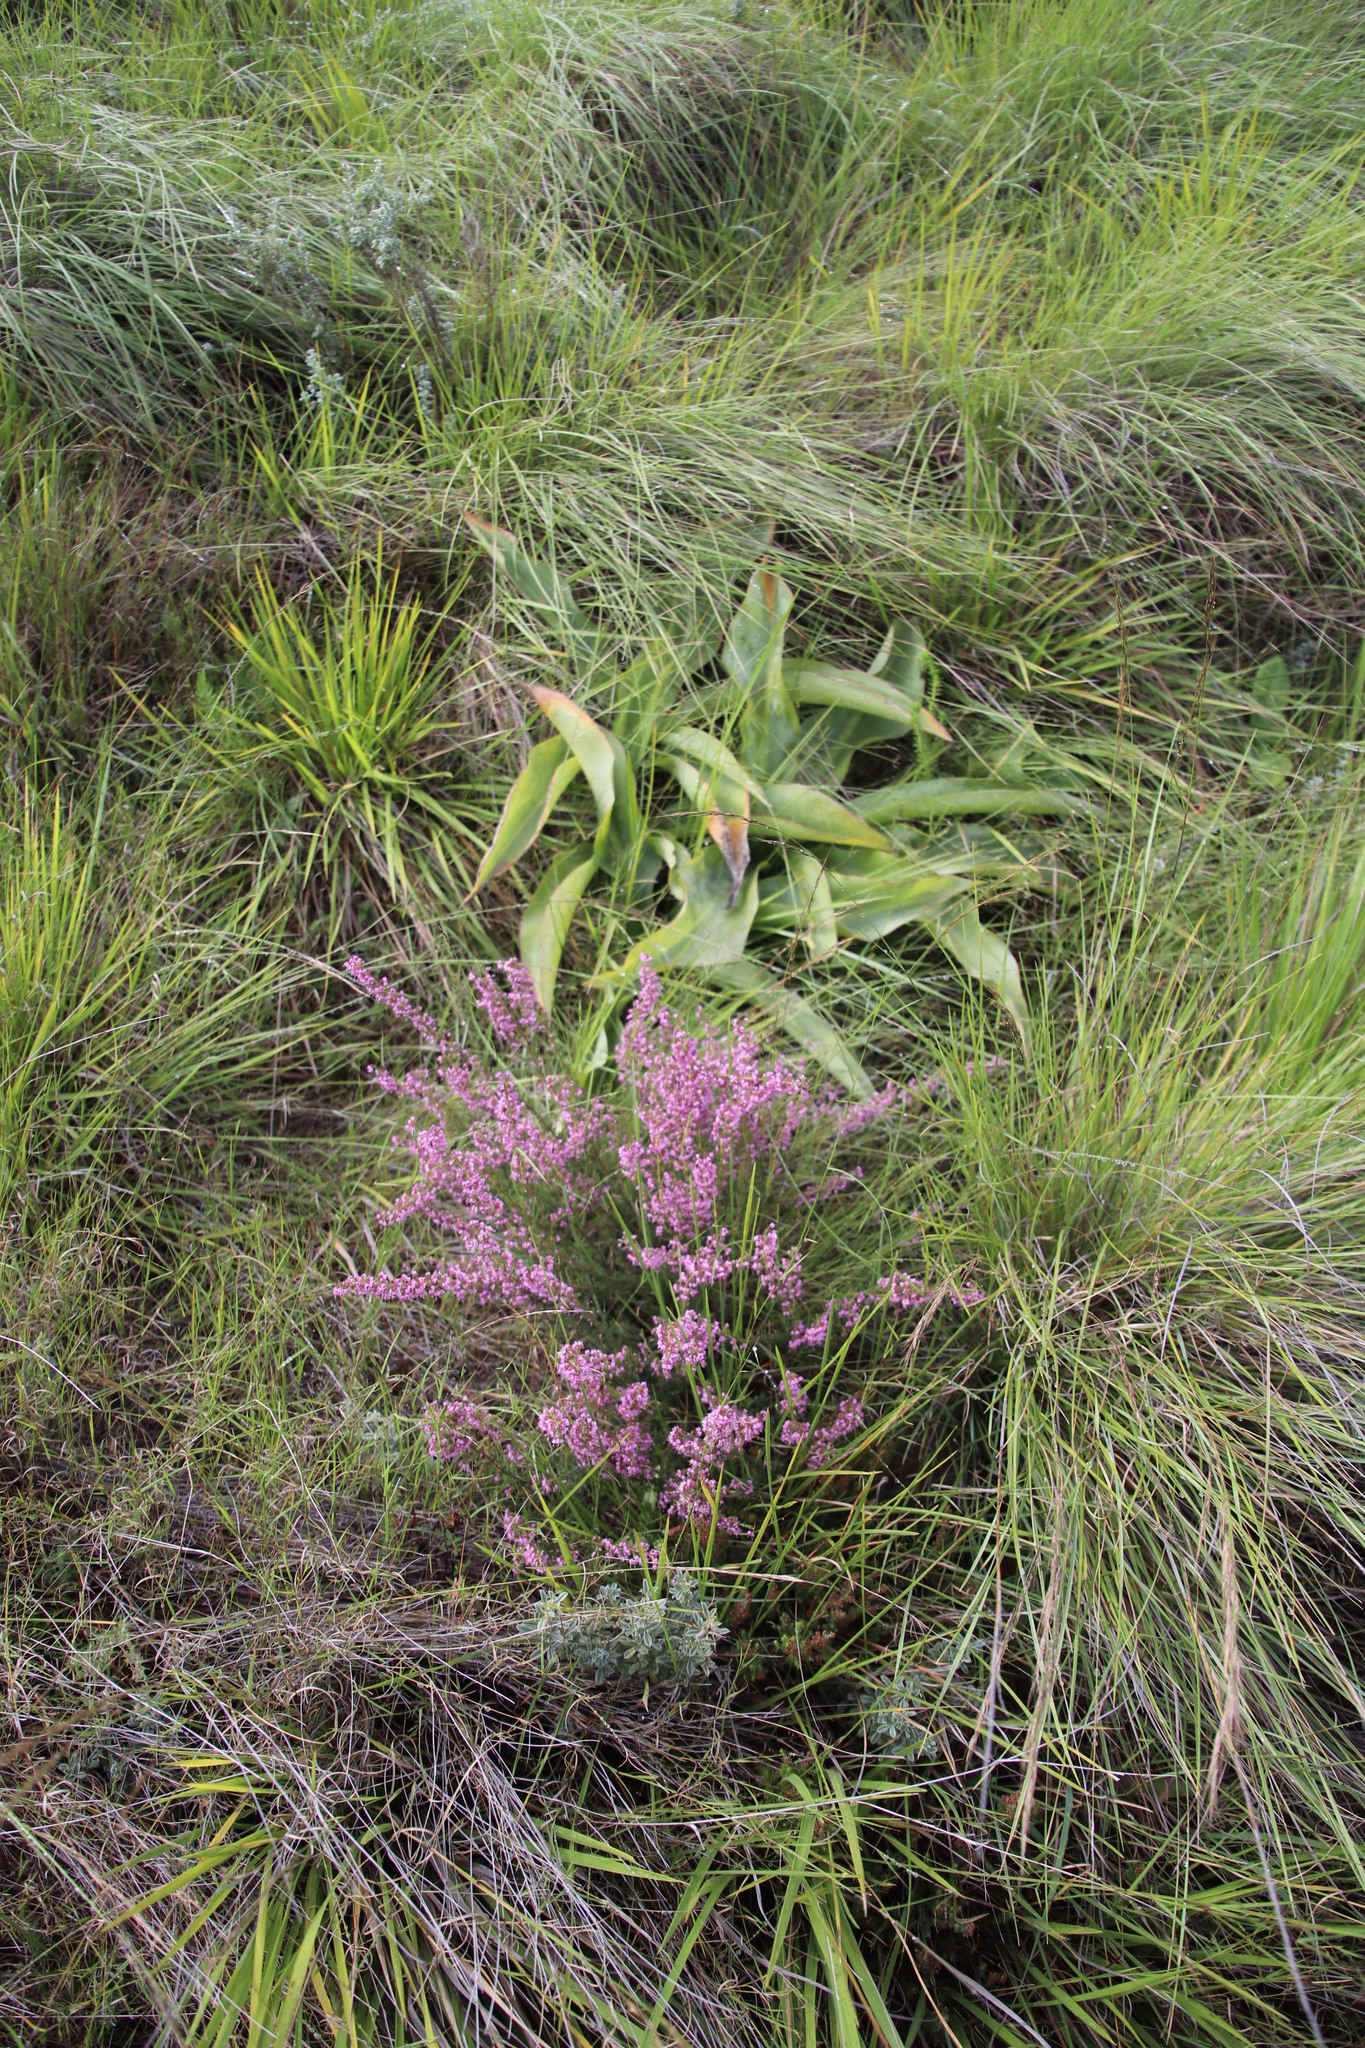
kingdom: Plantae
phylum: Tracheophyta
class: Magnoliopsida
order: Ericales
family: Ericaceae
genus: Erica
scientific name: Erica aestiva
